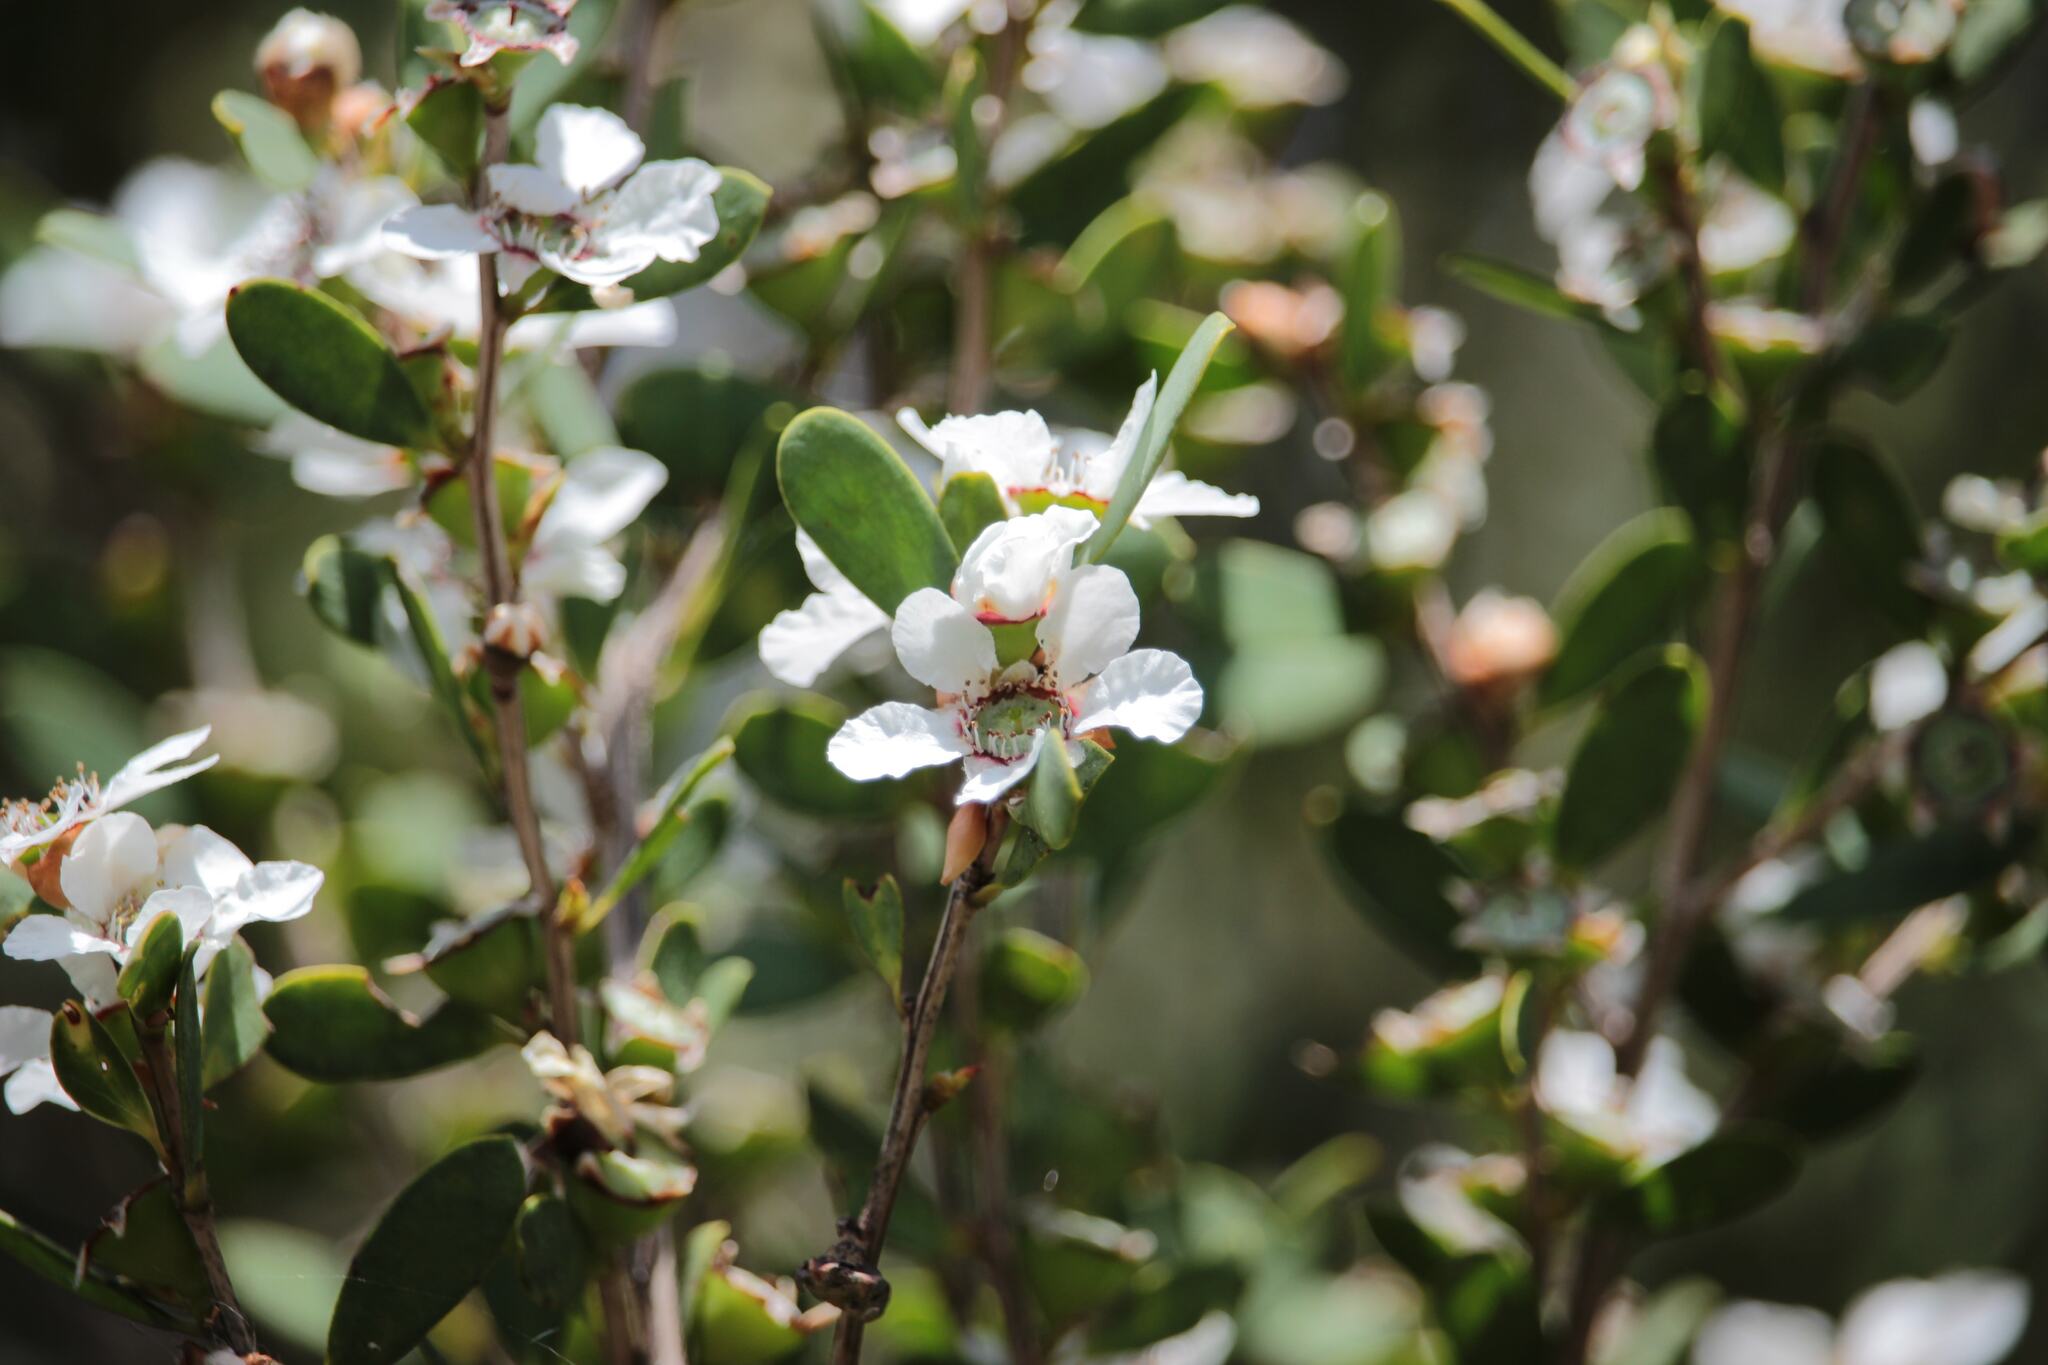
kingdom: Plantae
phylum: Tracheophyta
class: Magnoliopsida
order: Myrtales
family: Myrtaceae
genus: Leptospermum
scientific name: Leptospermum laevigatum
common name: Australian teatree
